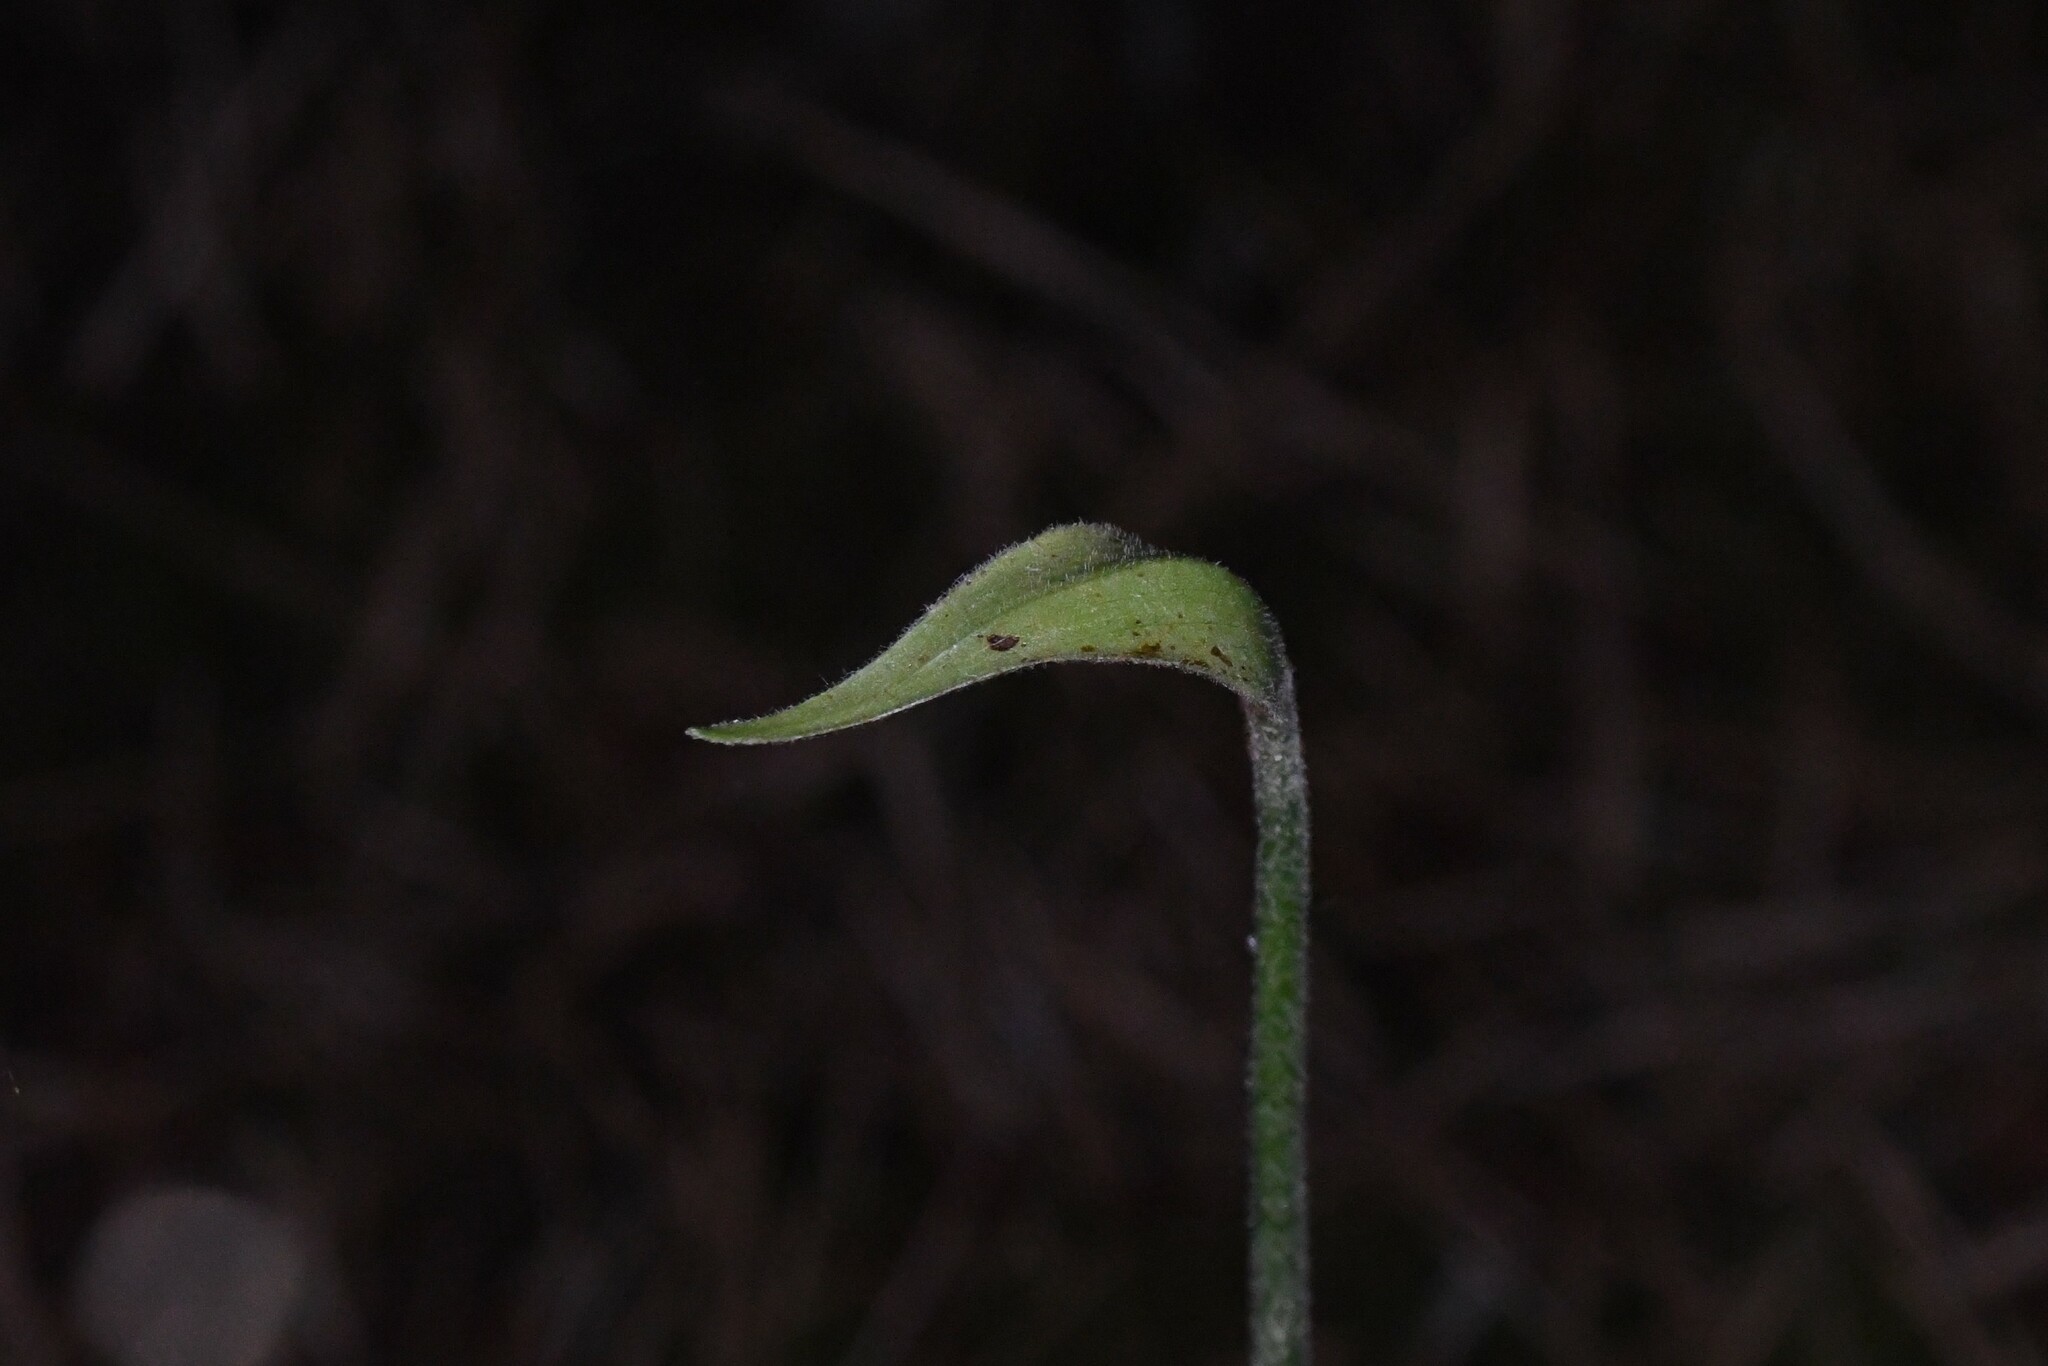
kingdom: Plantae
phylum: Tracheophyta
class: Liliopsida
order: Asparagales
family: Orchidaceae
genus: Cypripedium
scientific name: Cypripedium acaule
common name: Pink lady's-slipper
